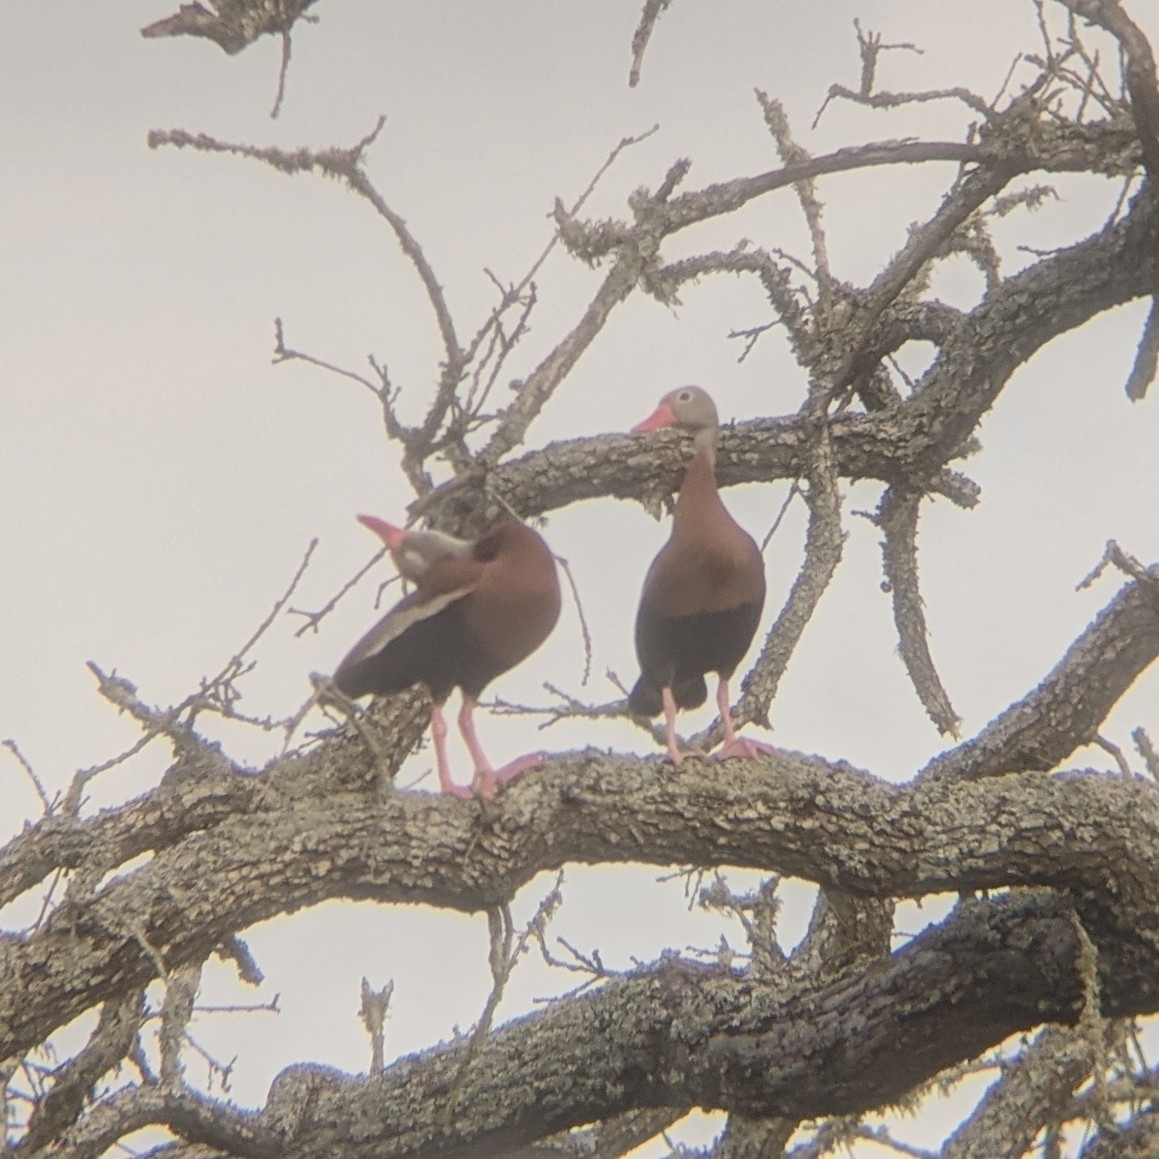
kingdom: Animalia
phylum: Chordata
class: Aves
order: Anseriformes
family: Anatidae
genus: Dendrocygna
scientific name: Dendrocygna autumnalis
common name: Black-bellied whistling duck
